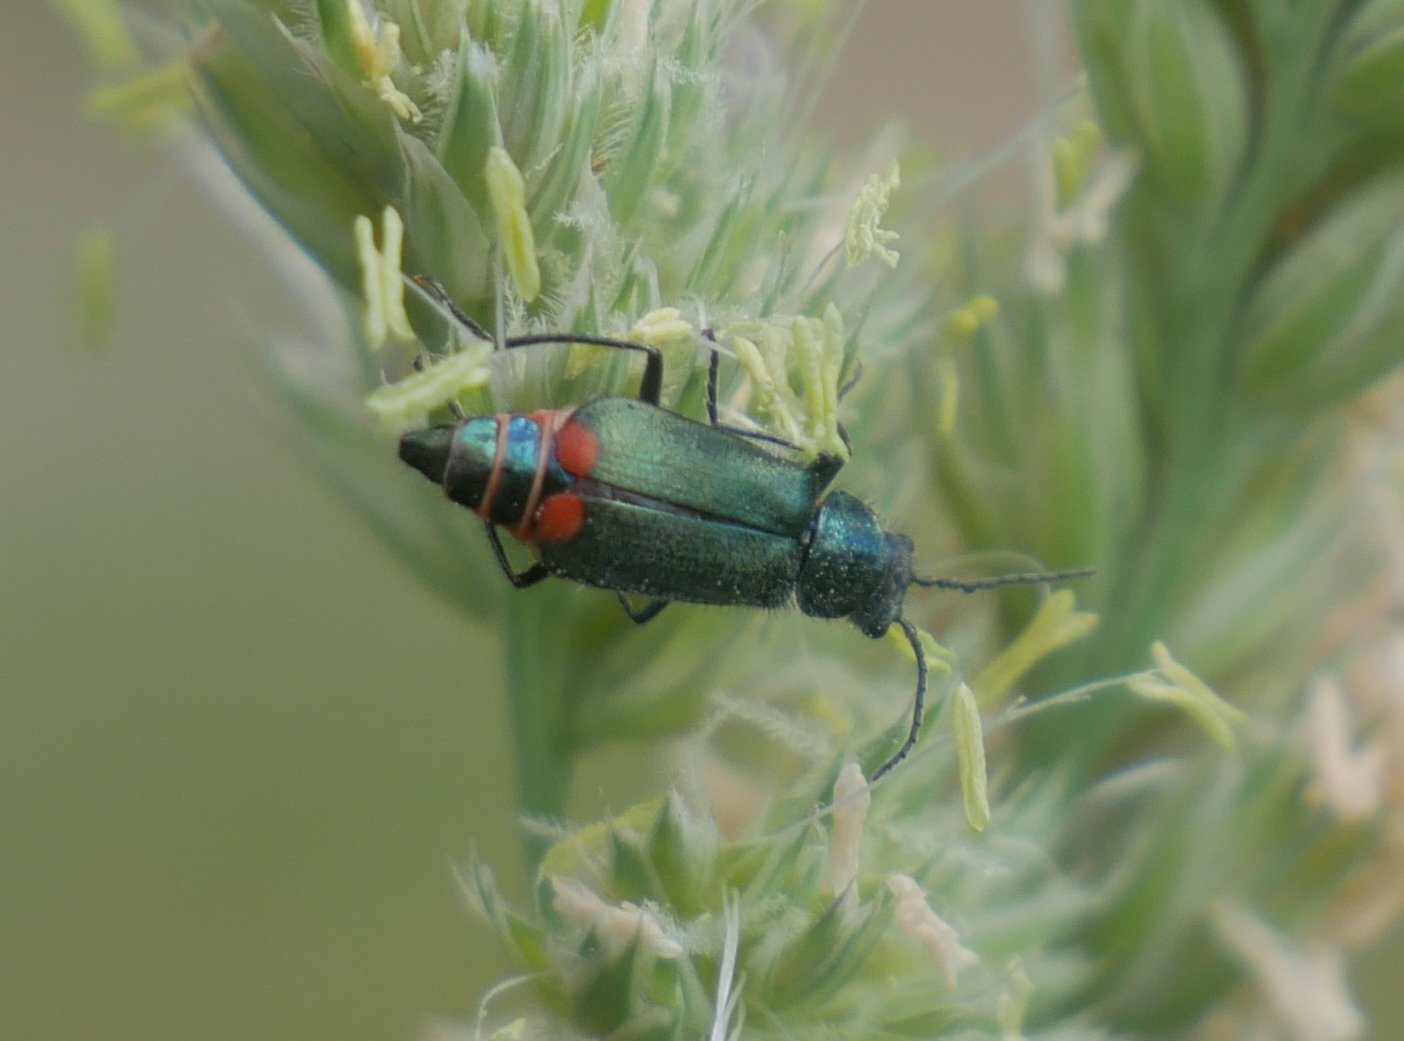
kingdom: Animalia
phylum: Arthropoda
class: Insecta
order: Coleoptera
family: Melyridae
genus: Malachius
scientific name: Malachius bipustulatus
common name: Malachite beetle
